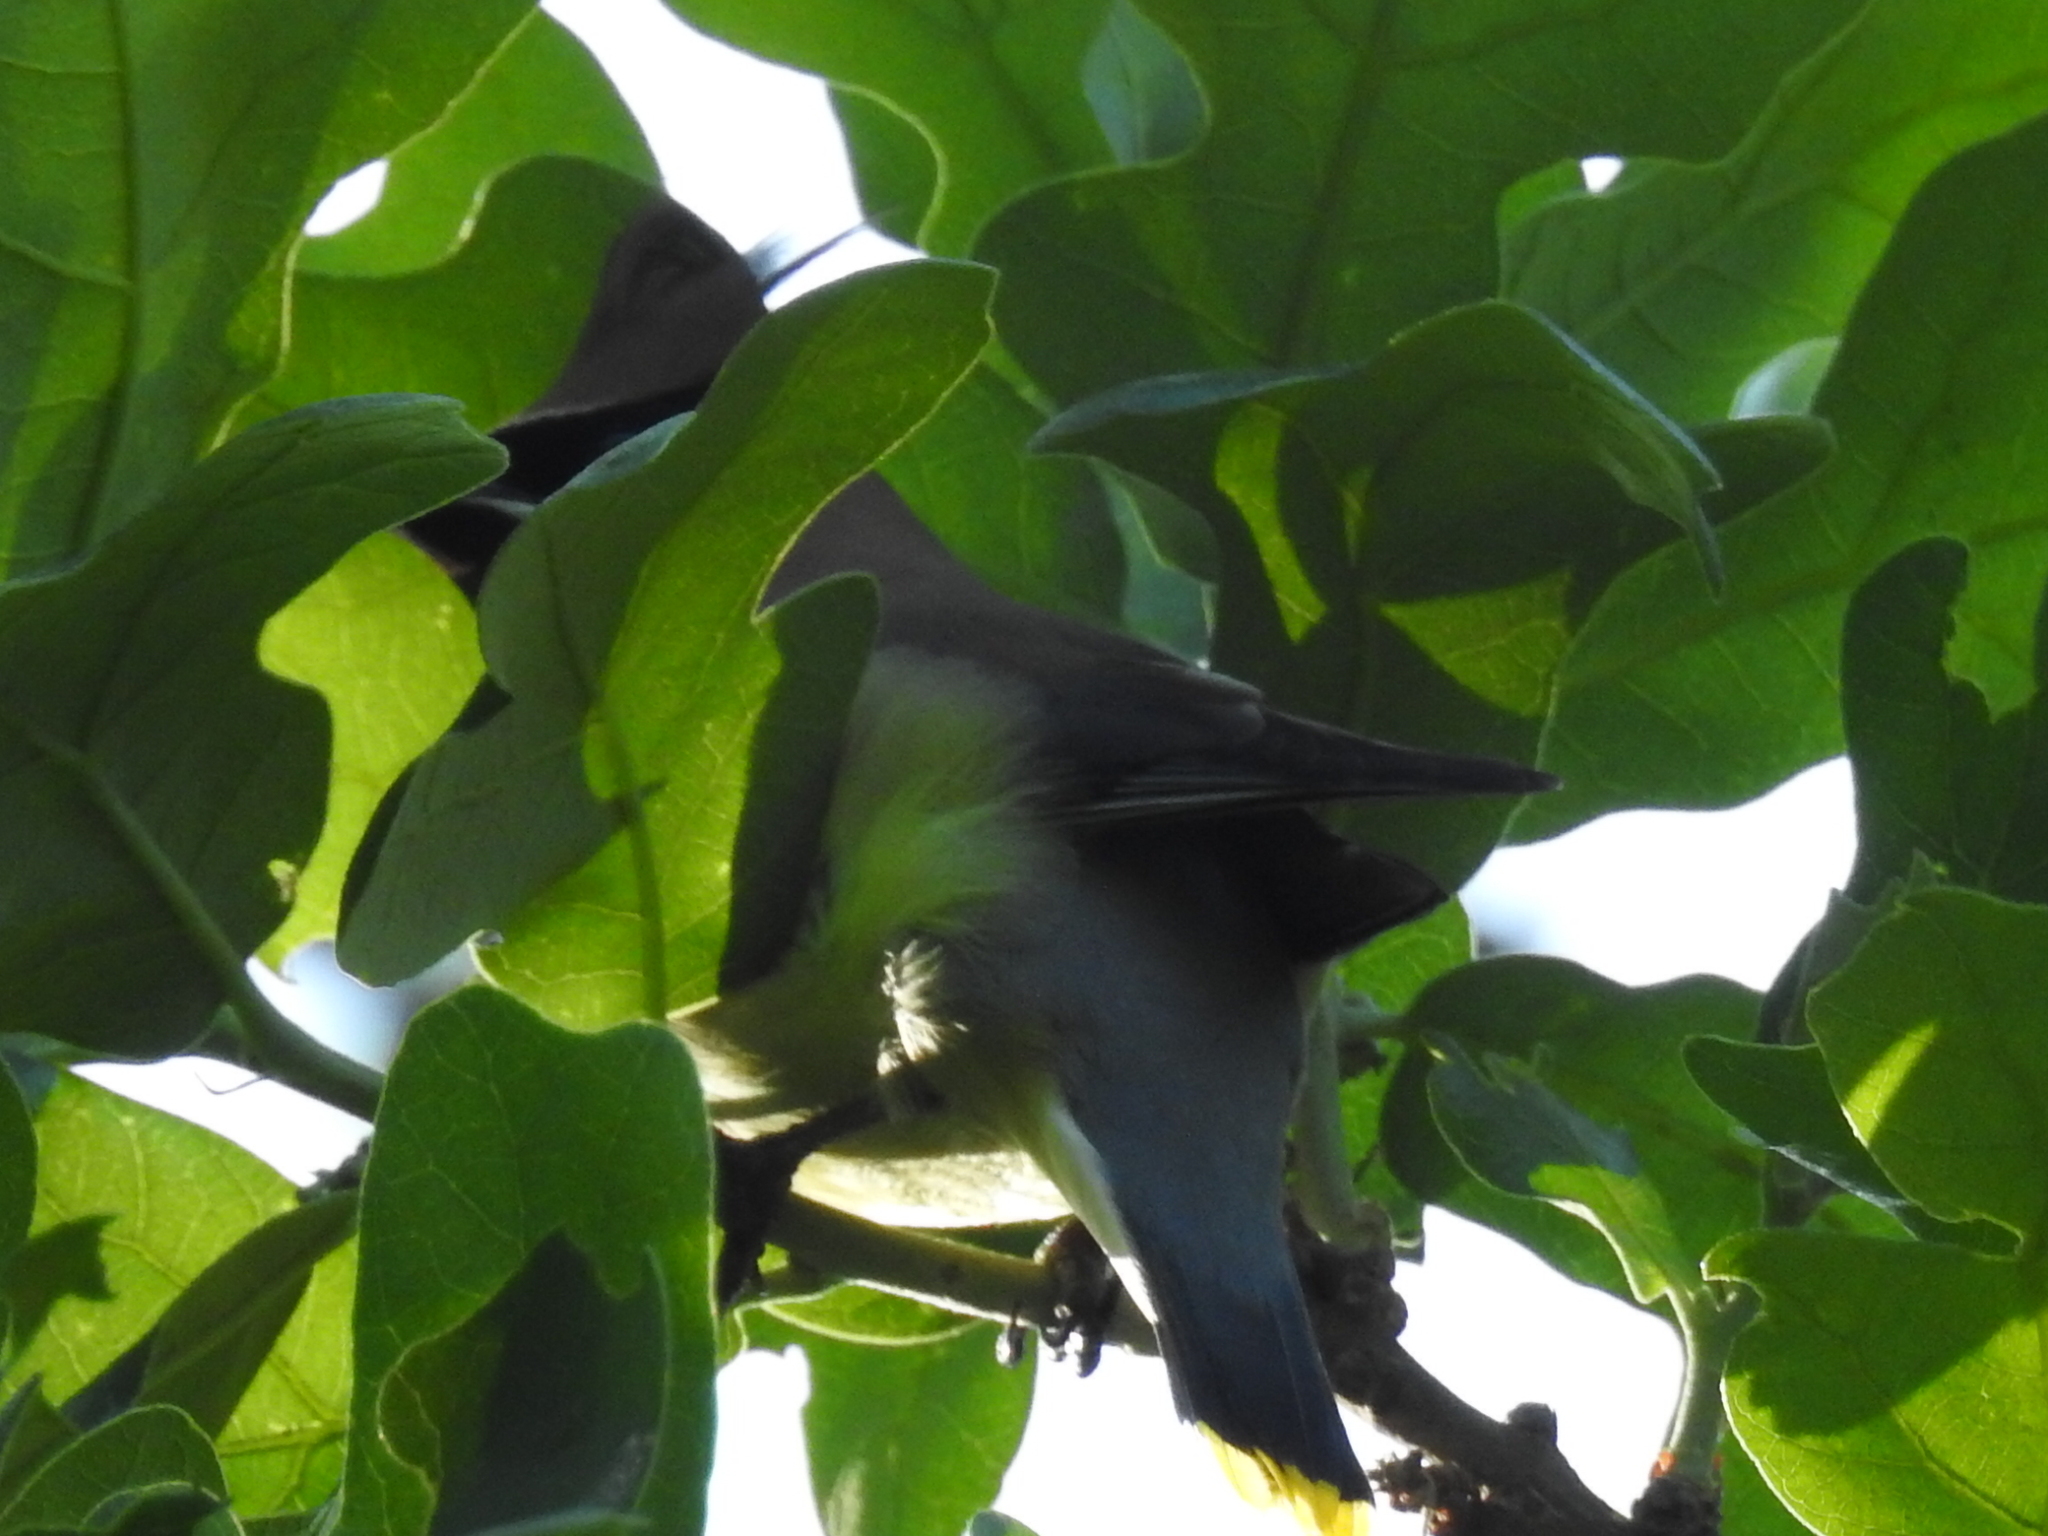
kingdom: Animalia
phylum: Chordata
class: Aves
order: Passeriformes
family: Bombycillidae
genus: Bombycilla
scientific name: Bombycilla cedrorum
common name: Cedar waxwing
